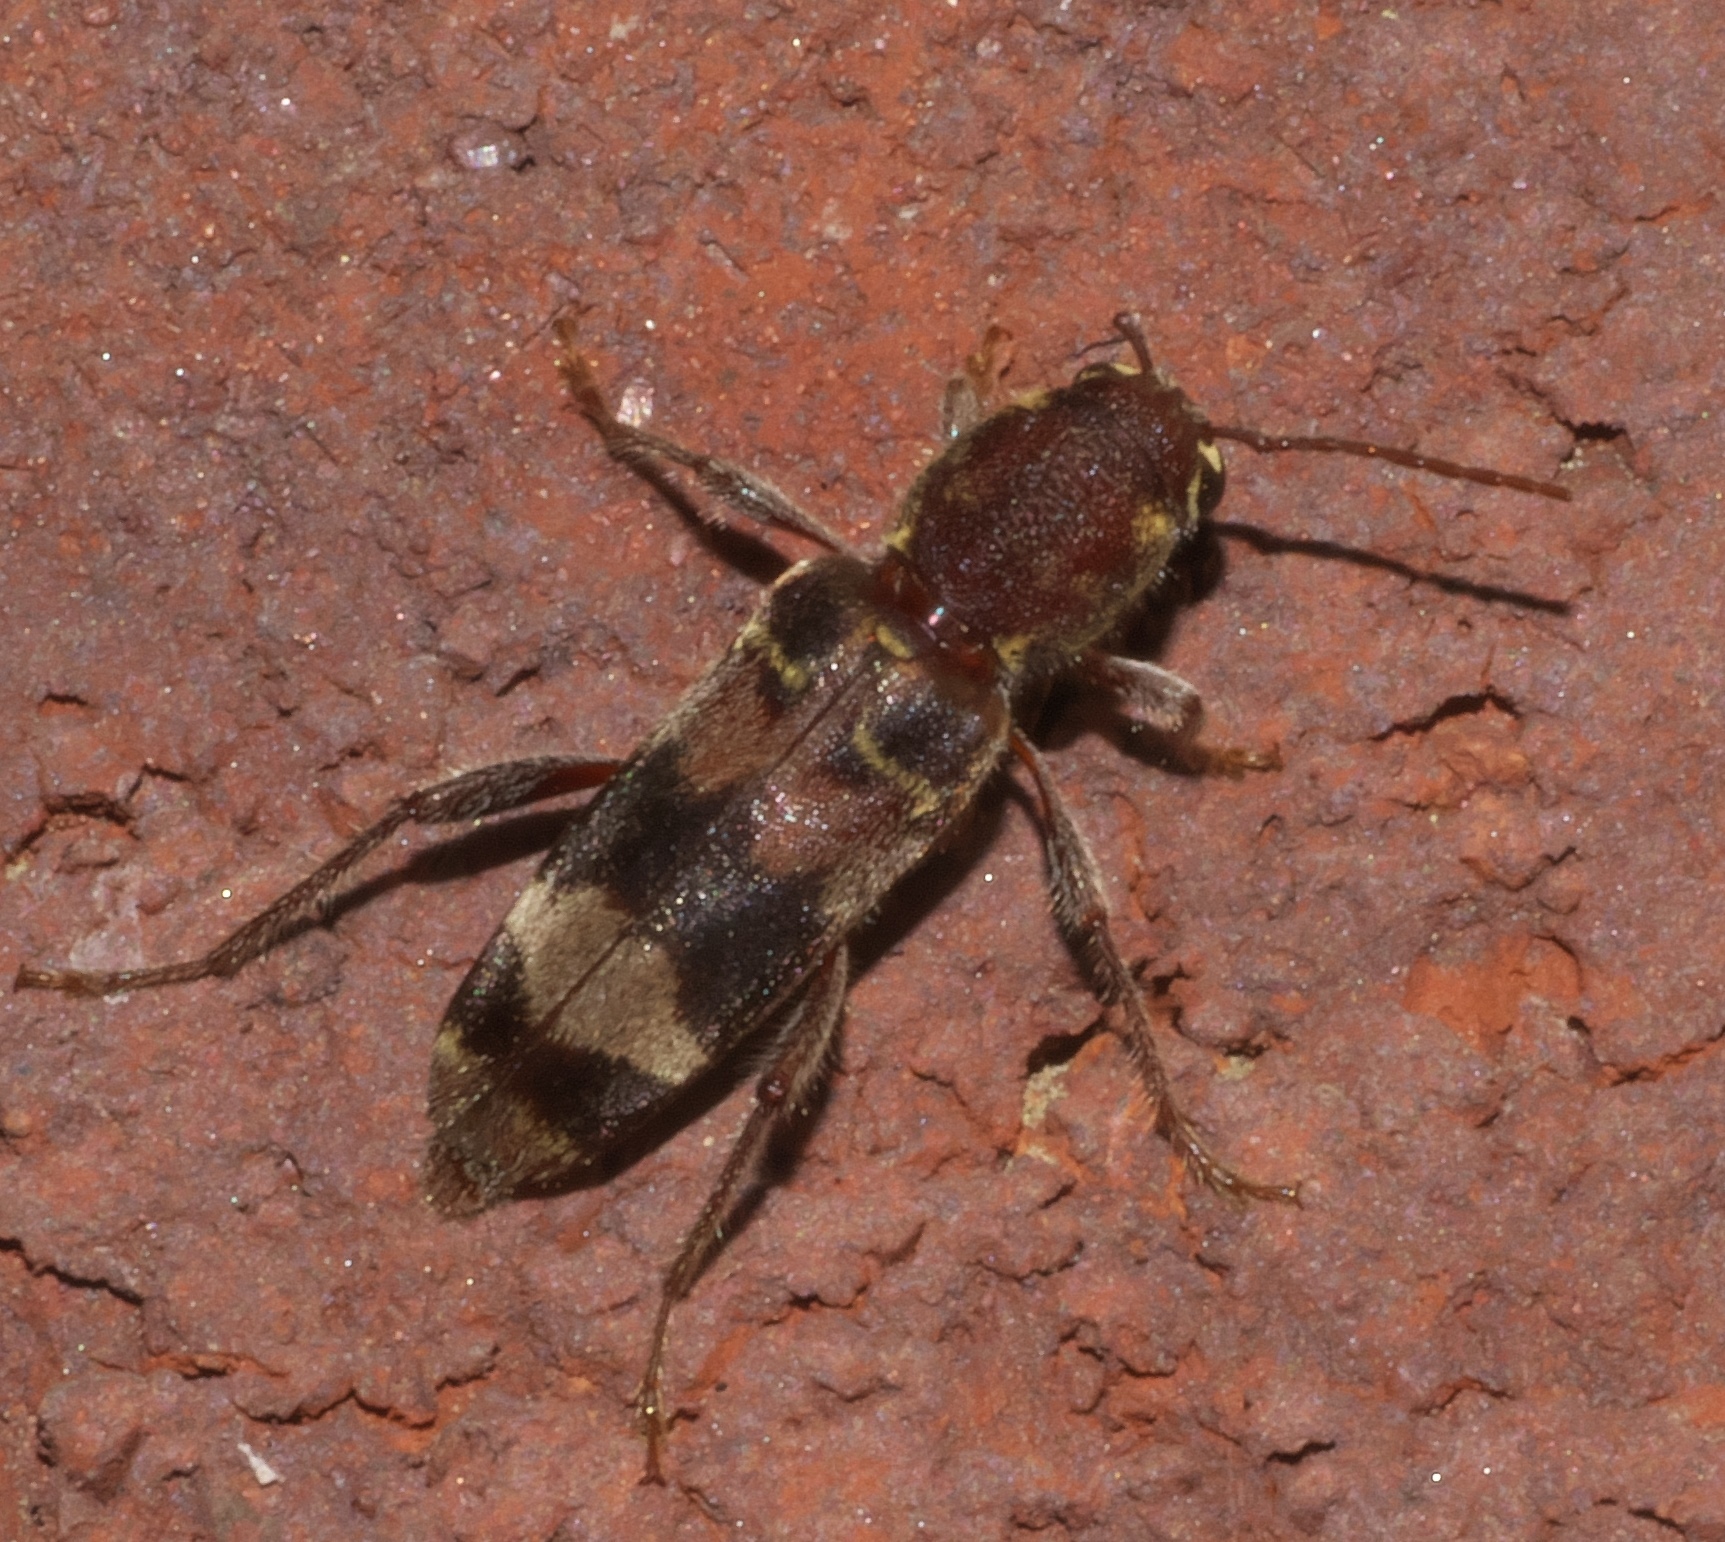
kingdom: Animalia
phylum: Arthropoda
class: Insecta
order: Coleoptera
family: Cerambycidae
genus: Xylotrechus
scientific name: Xylotrechus colonus
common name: Long-horned beetle
